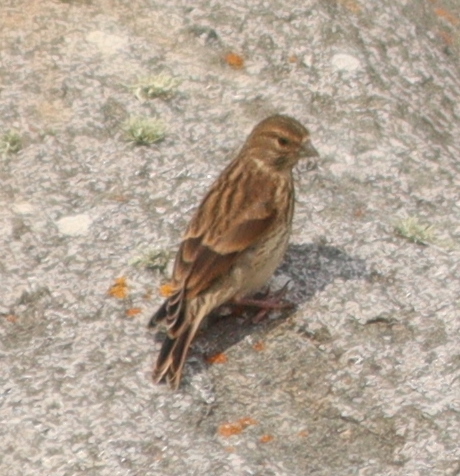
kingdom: Animalia
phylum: Chordata
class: Aves
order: Passeriformes
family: Fringillidae
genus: Linaria
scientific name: Linaria cannabina
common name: Common linnet
